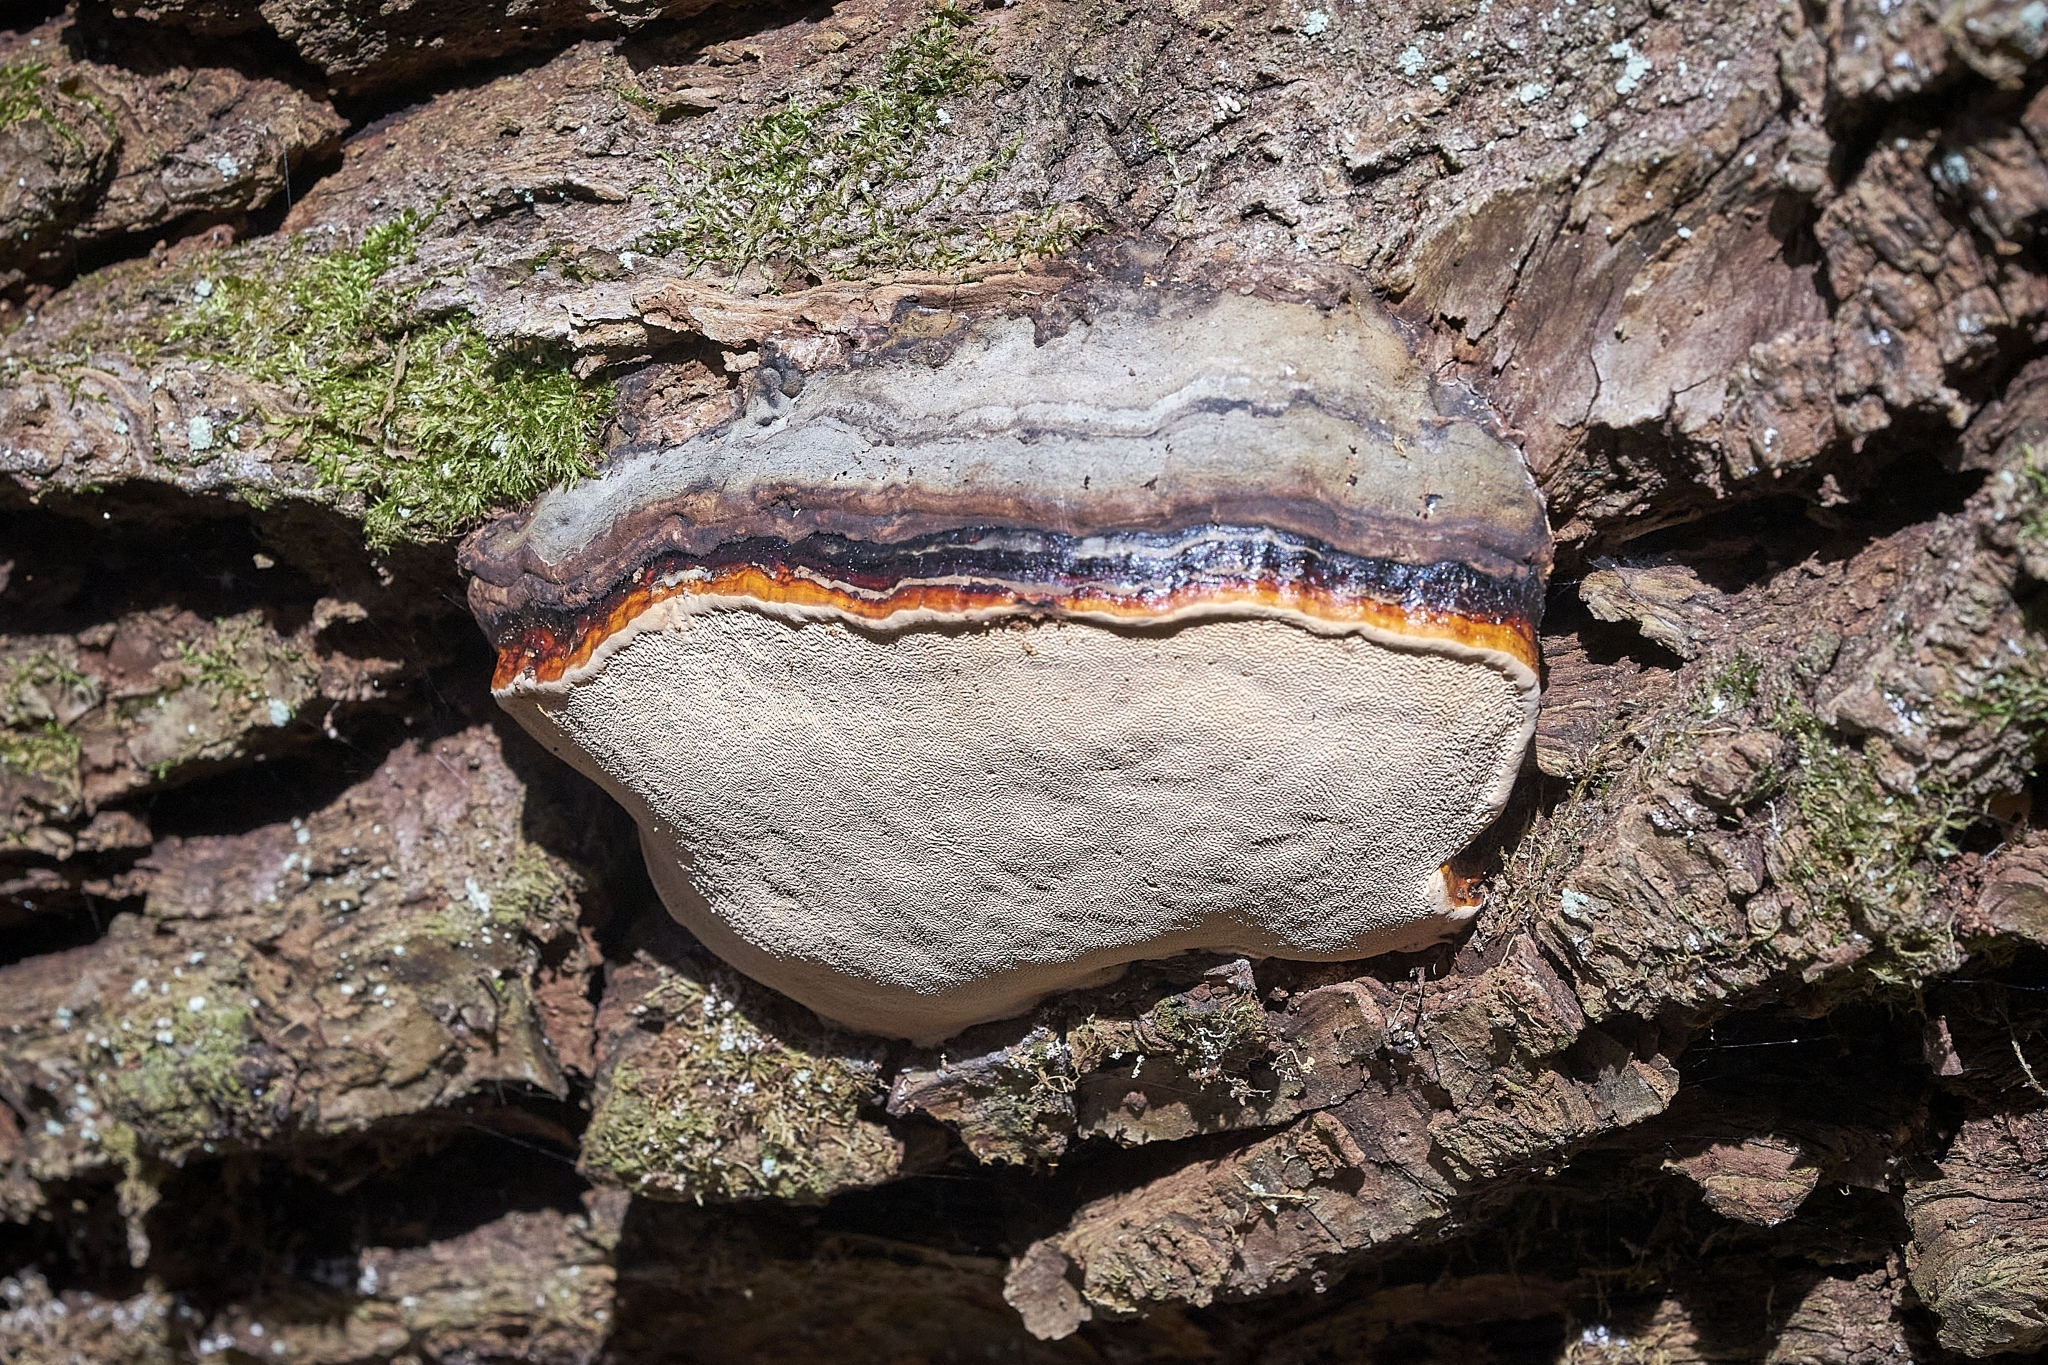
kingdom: Fungi
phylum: Basidiomycota
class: Agaricomycetes
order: Polyporales
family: Fomitopsidaceae
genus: Fomitopsis
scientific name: Fomitopsis pinicola
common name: Red-belted bracket
